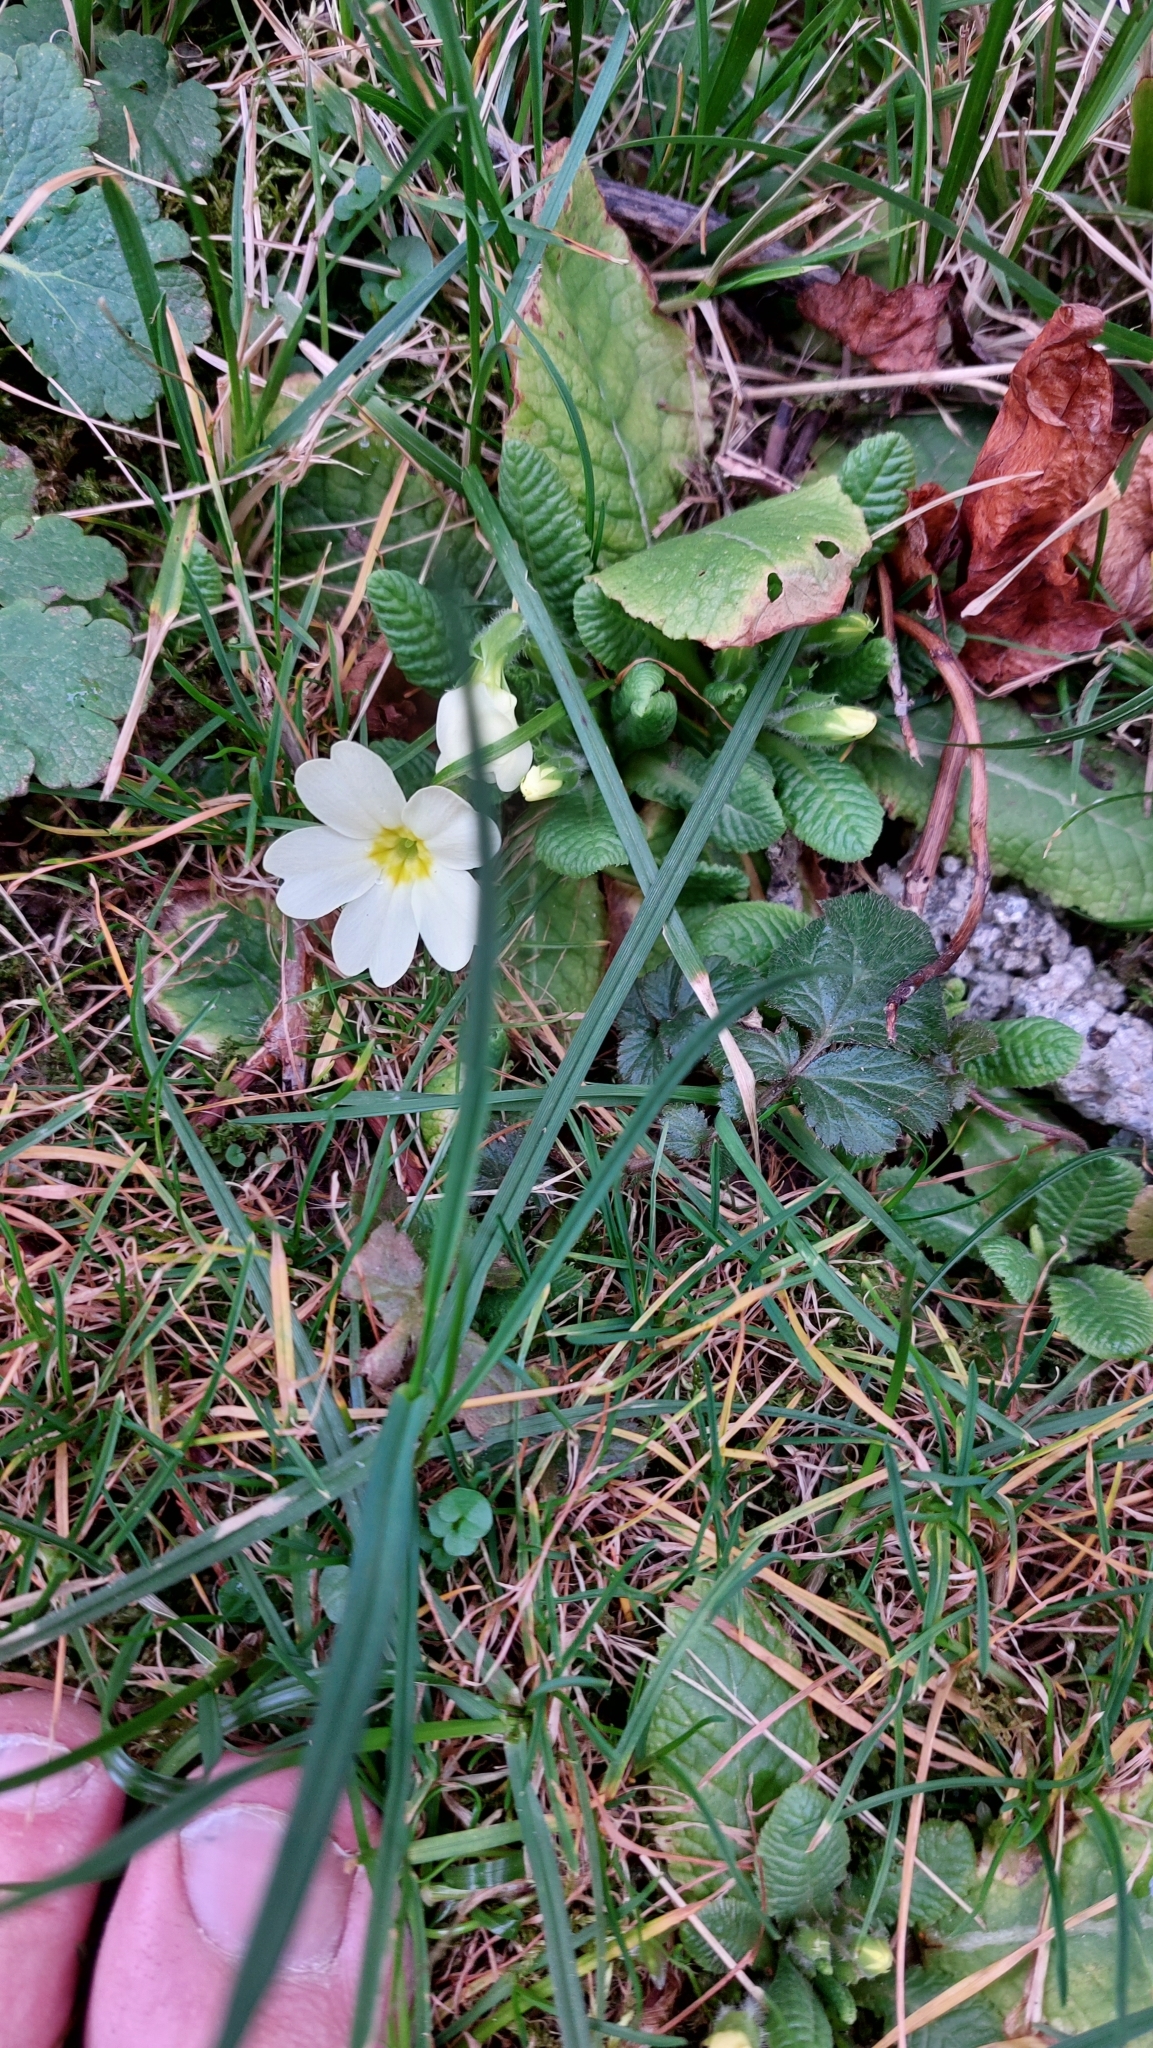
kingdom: Plantae
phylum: Tracheophyta
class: Magnoliopsida
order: Ericales
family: Primulaceae
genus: Primula
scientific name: Primula vulgaris
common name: Primrose
